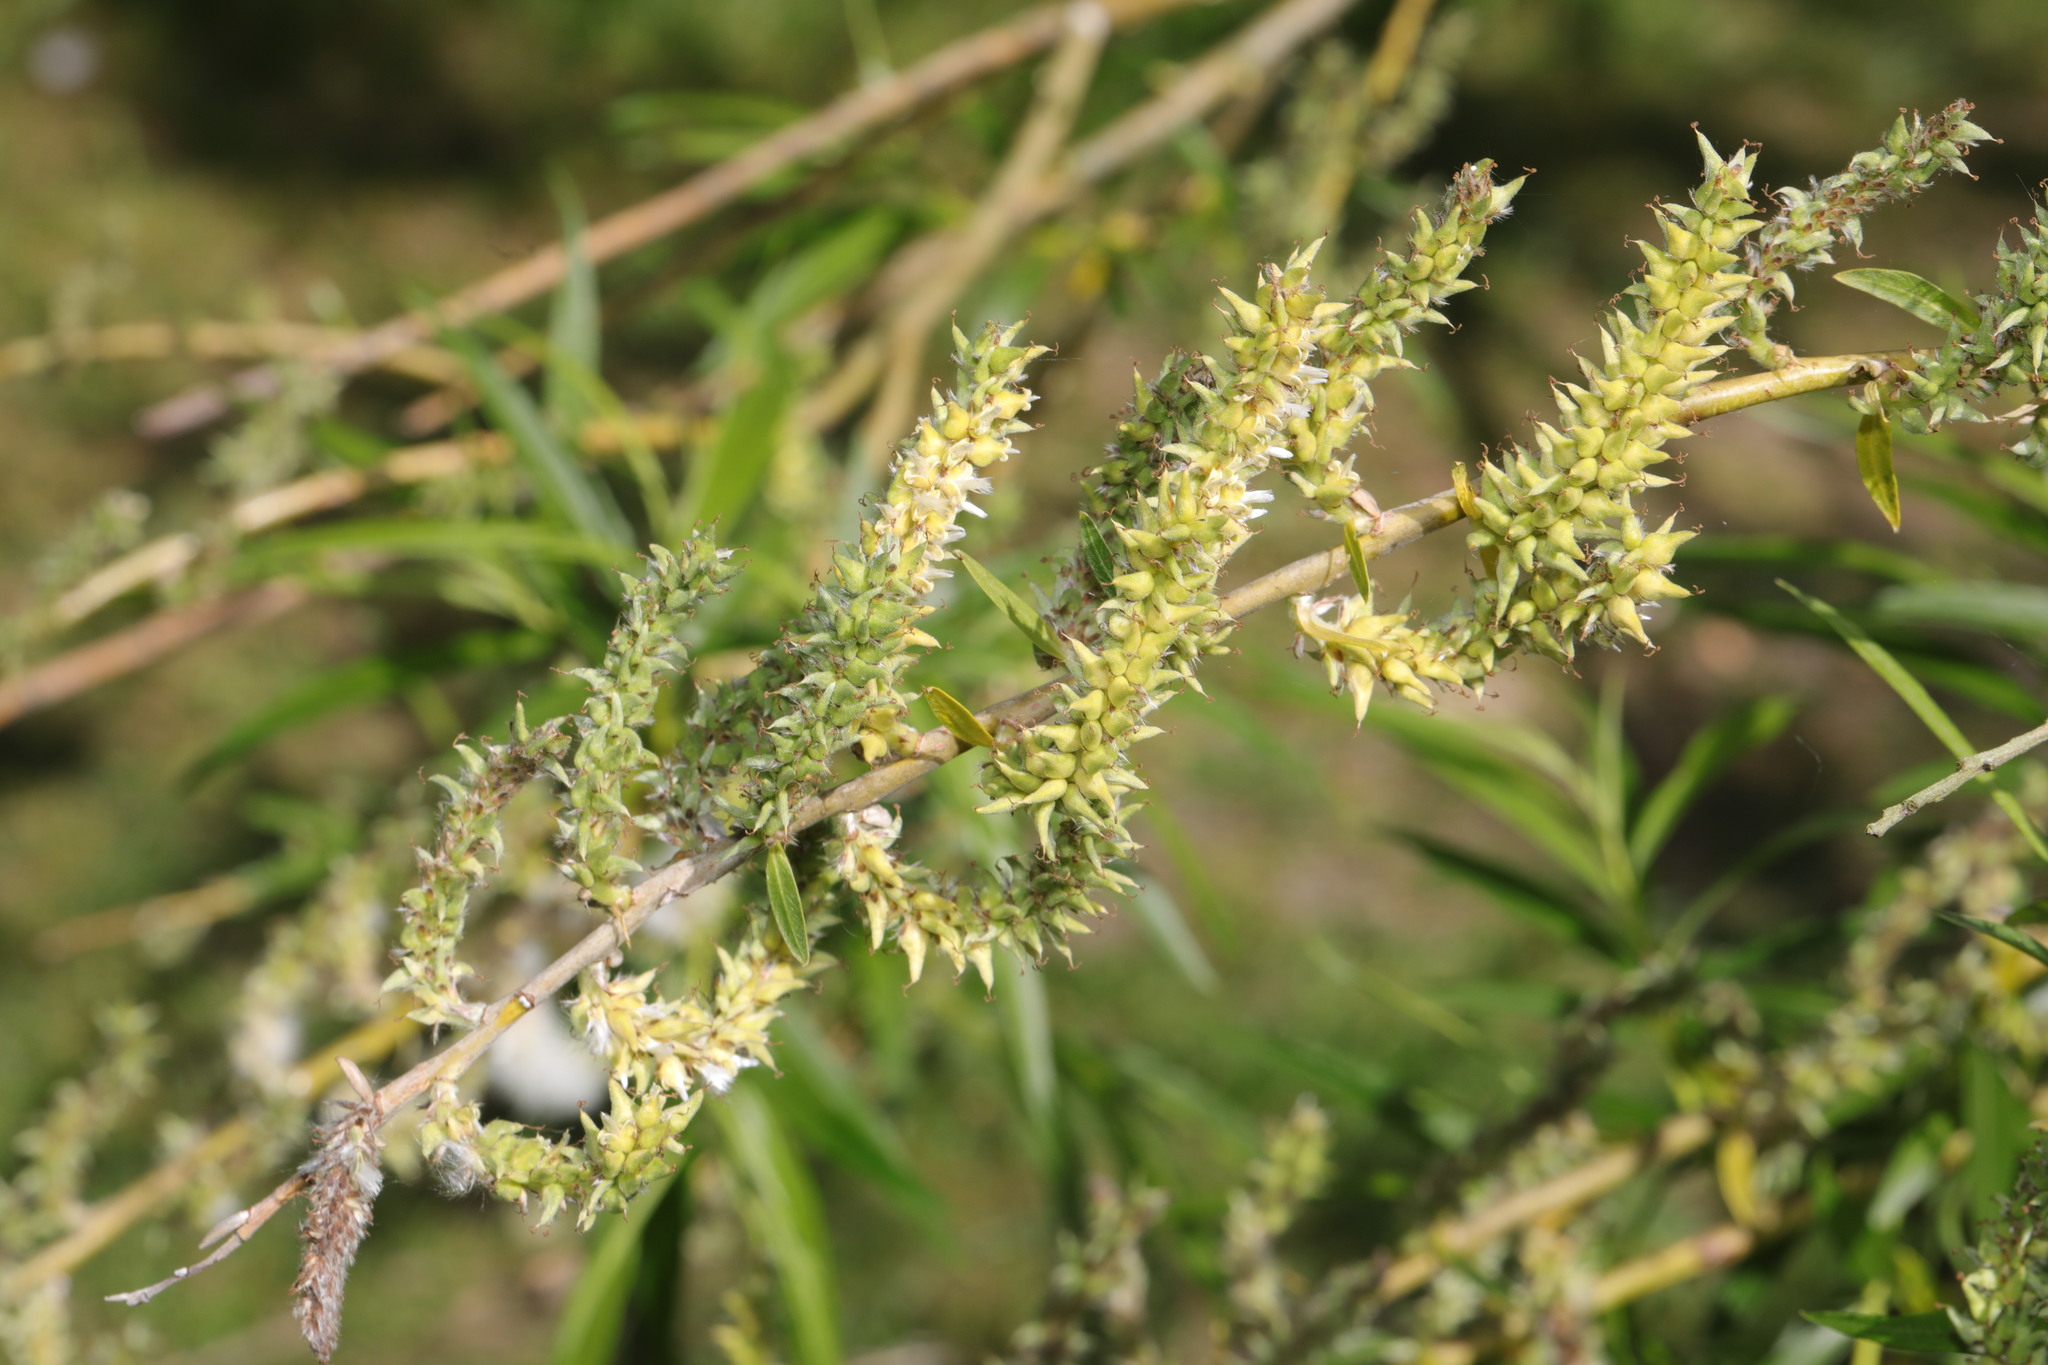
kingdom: Plantae
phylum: Tracheophyta
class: Magnoliopsida
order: Malpighiales
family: Salicaceae
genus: Salix
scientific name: Salix viminalis
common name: Osier
